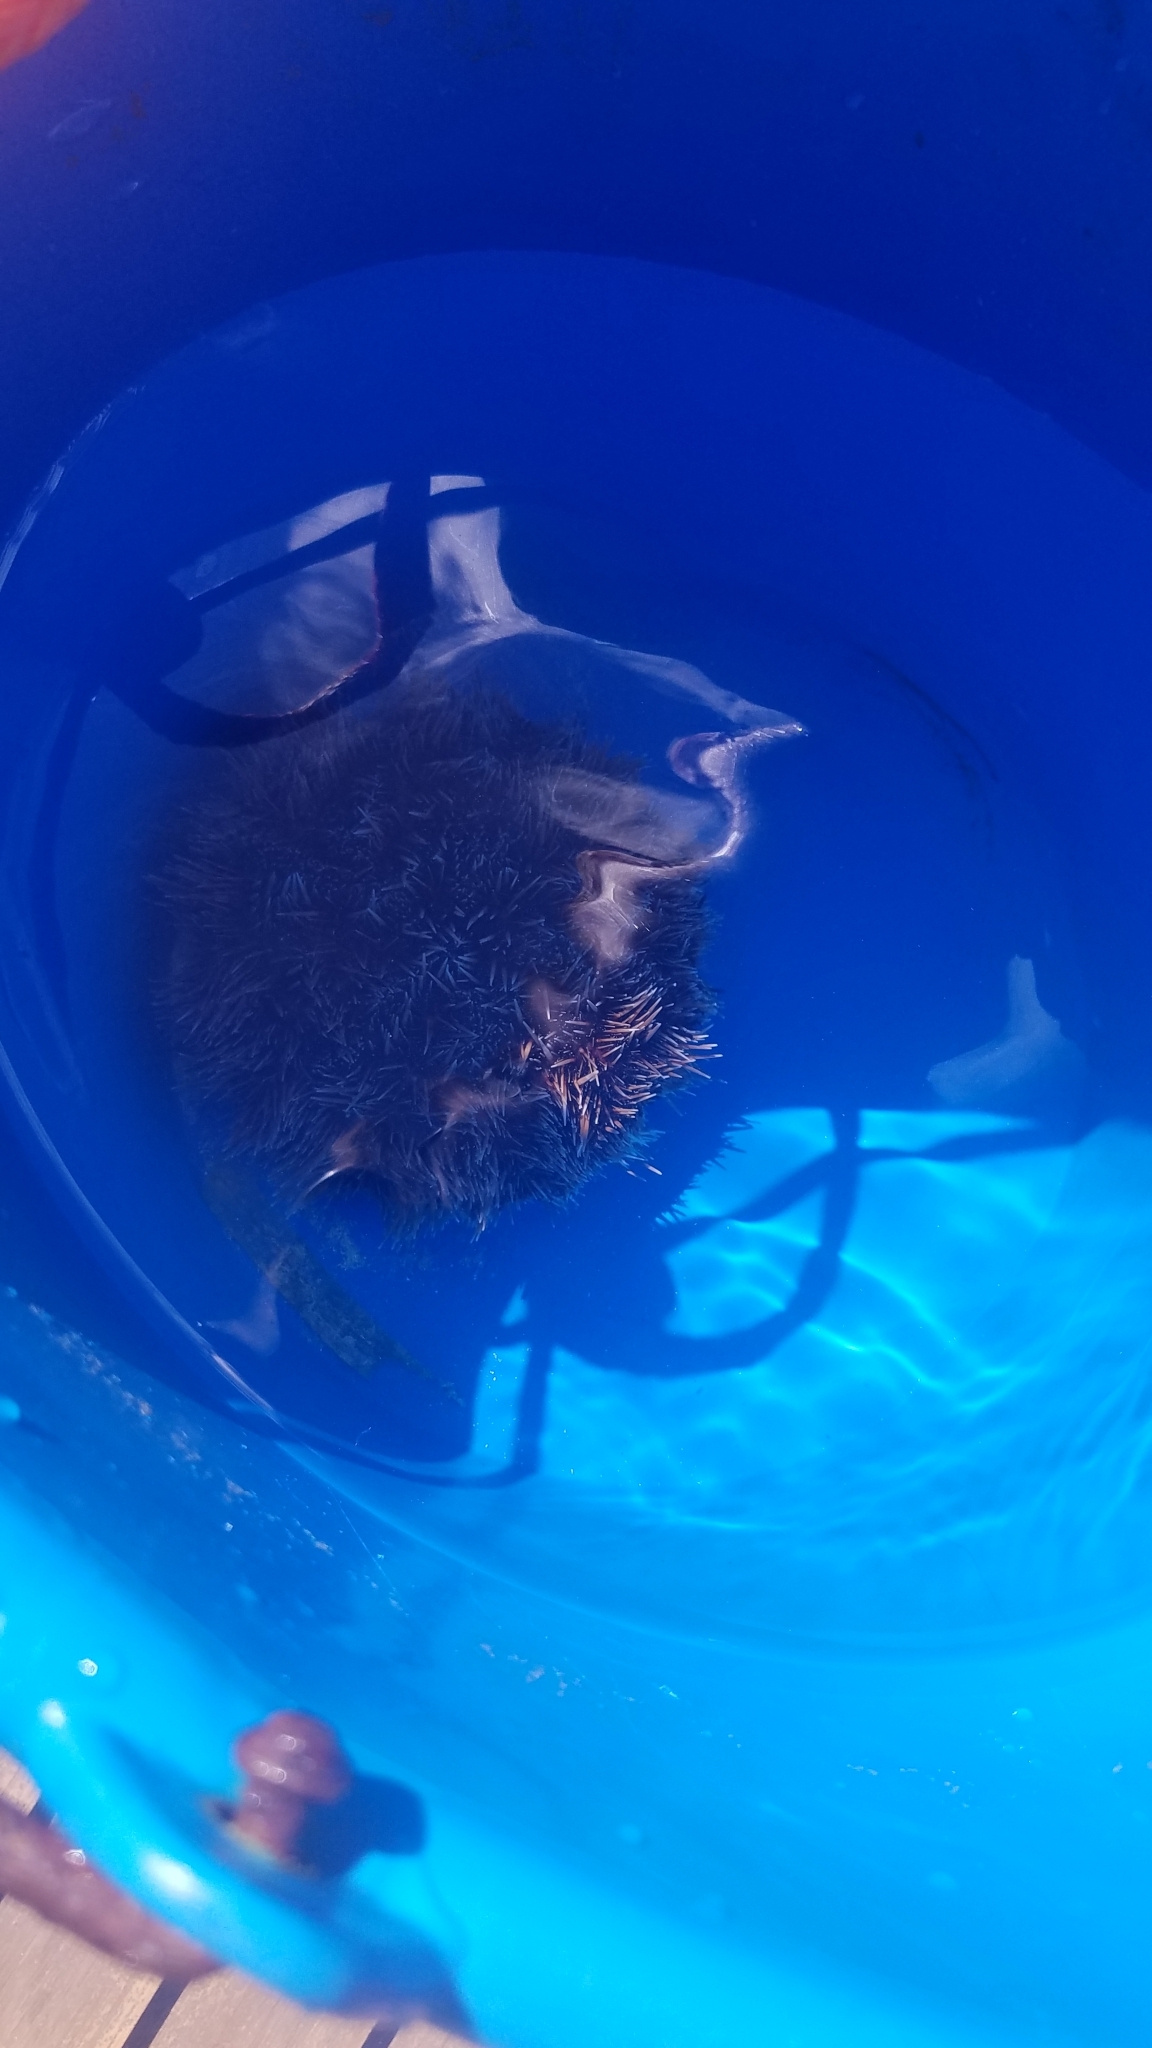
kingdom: Animalia
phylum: Echinodermata
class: Echinoidea
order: Camarodonta
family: Toxopneustidae
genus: Tripneustes
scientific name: Tripneustes ventricosus
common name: West indian sea egg
